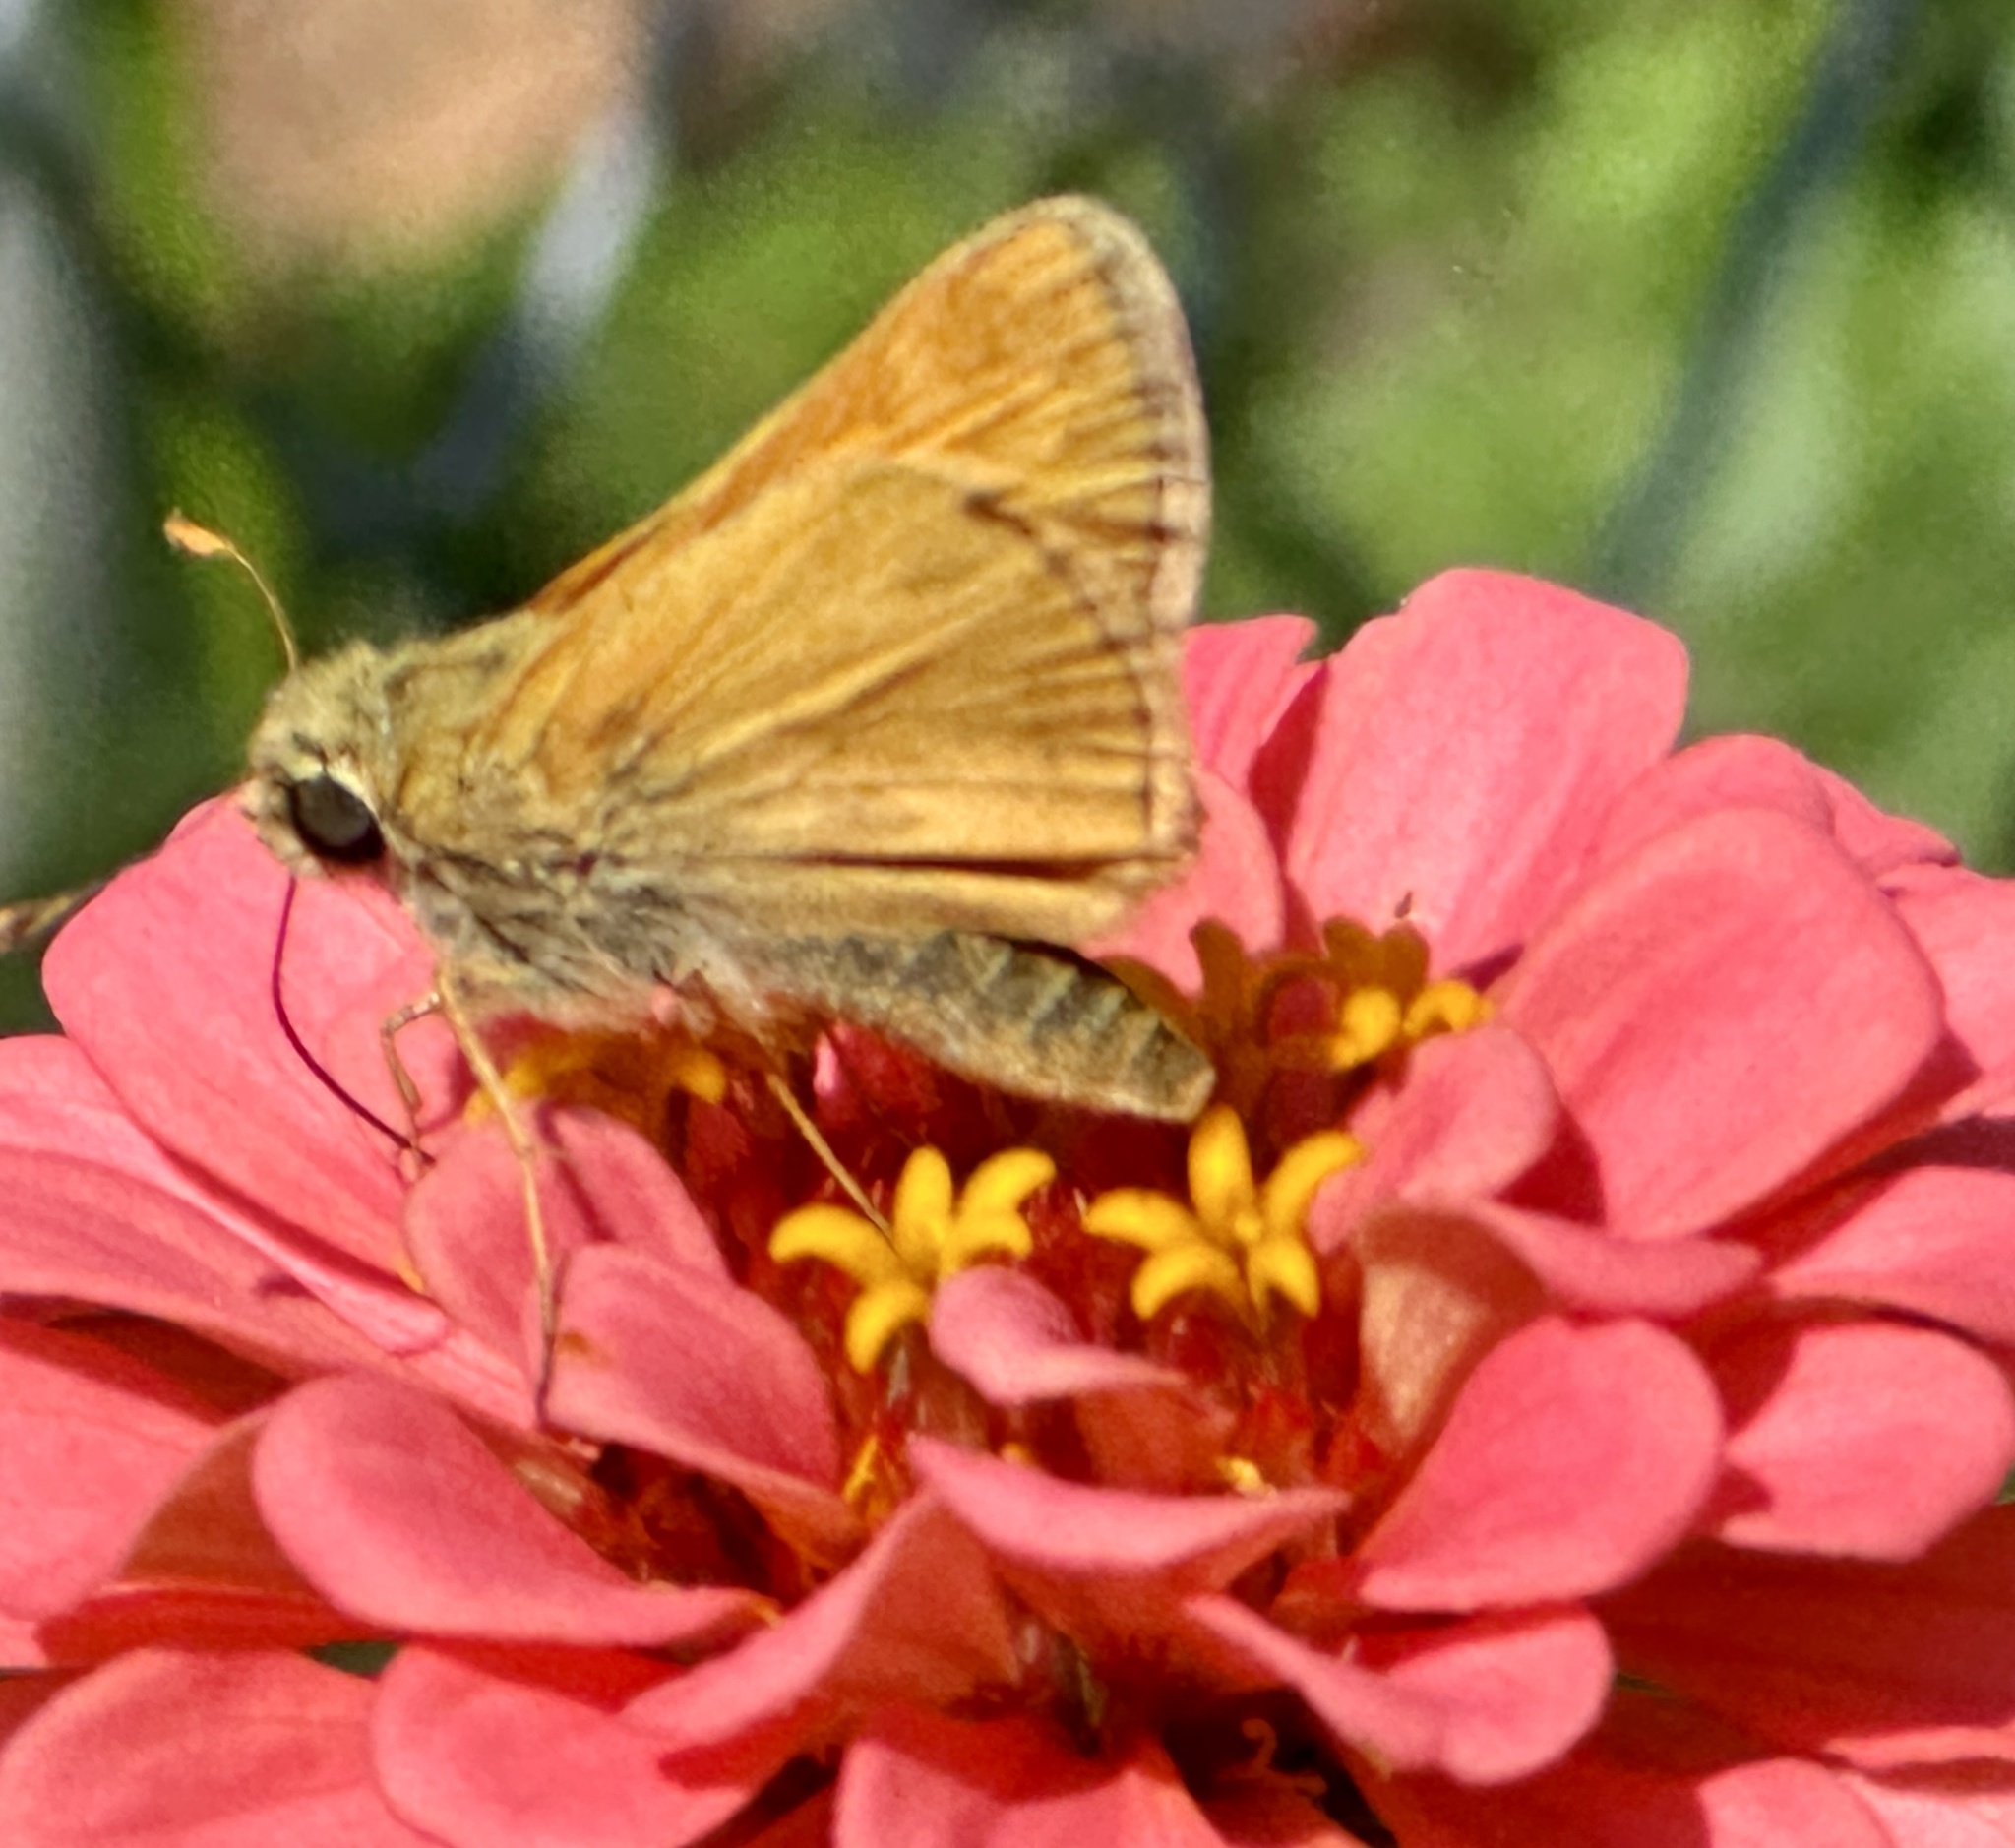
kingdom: Animalia
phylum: Arthropoda
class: Insecta
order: Lepidoptera
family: Hesperiidae
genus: Atalopedes
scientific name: Atalopedes
